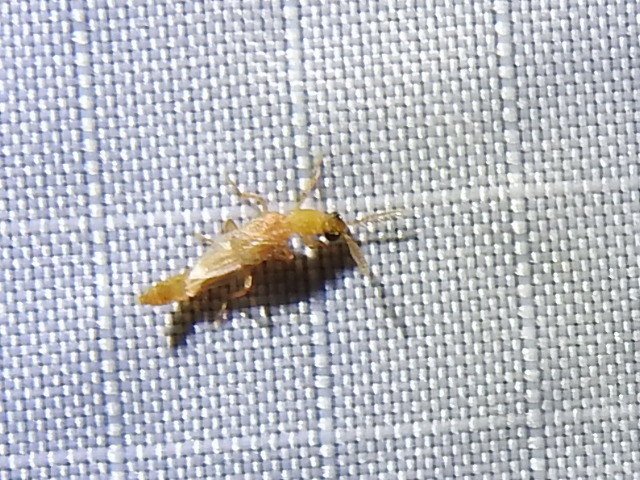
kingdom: Animalia
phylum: Arthropoda
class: Insecta
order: Coleoptera
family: Phengodidae
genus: Cenophengus
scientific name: Cenophengus pallidus
